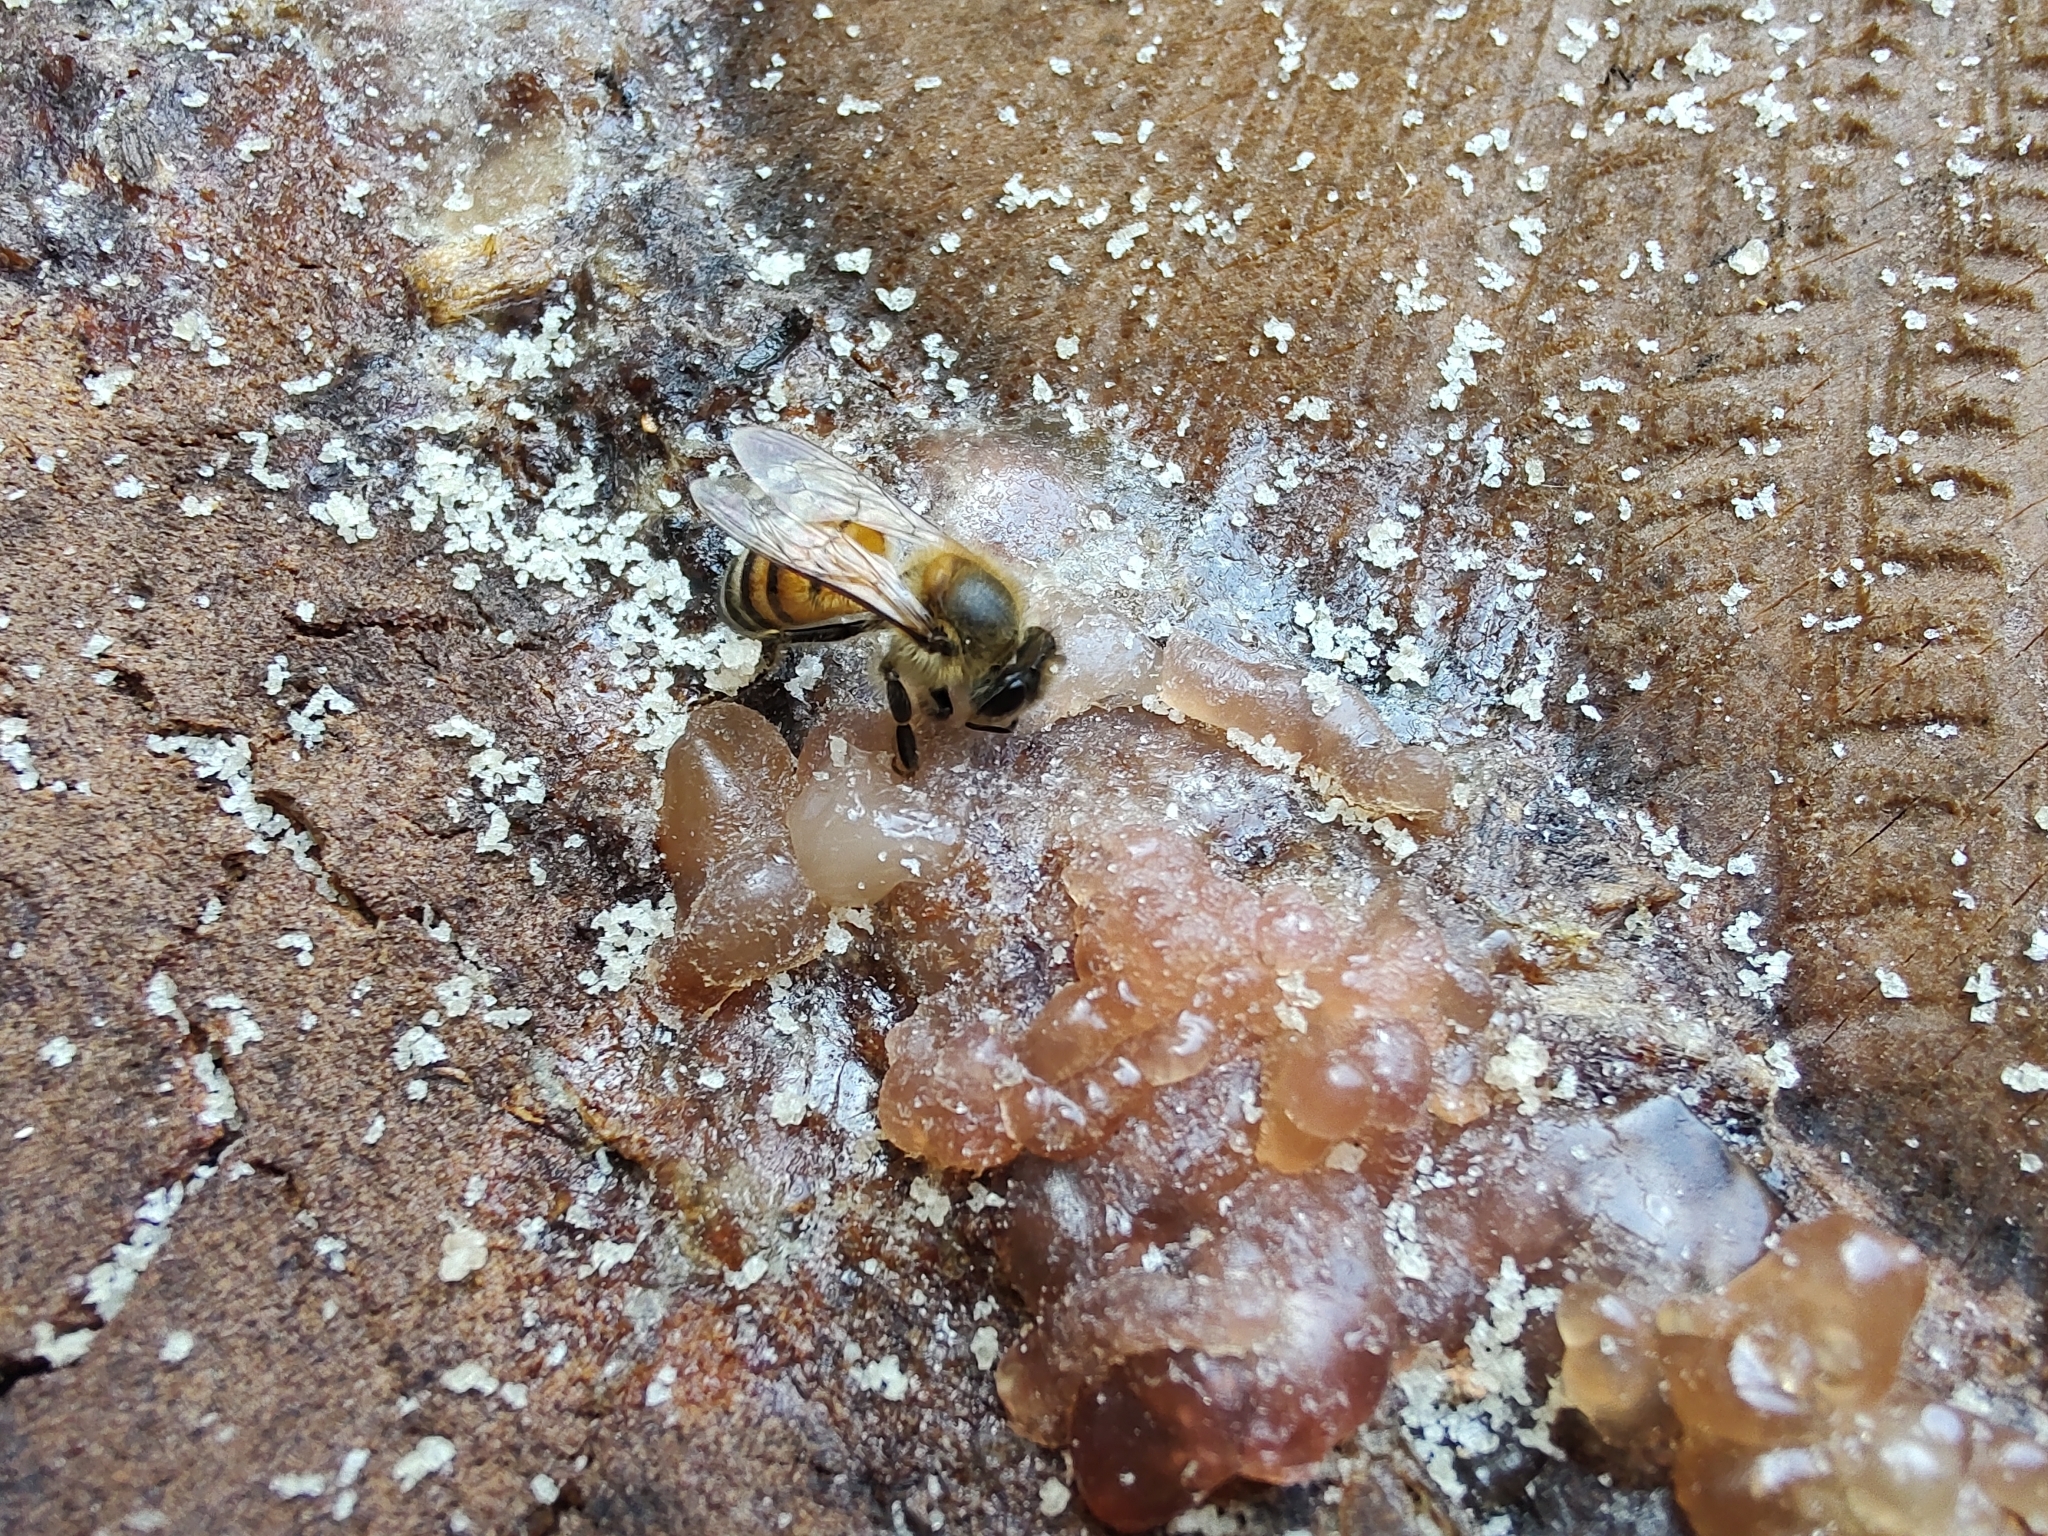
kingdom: Animalia
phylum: Arthropoda
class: Insecta
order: Hymenoptera
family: Apidae
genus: Apis
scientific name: Apis mellifera
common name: Honey bee
